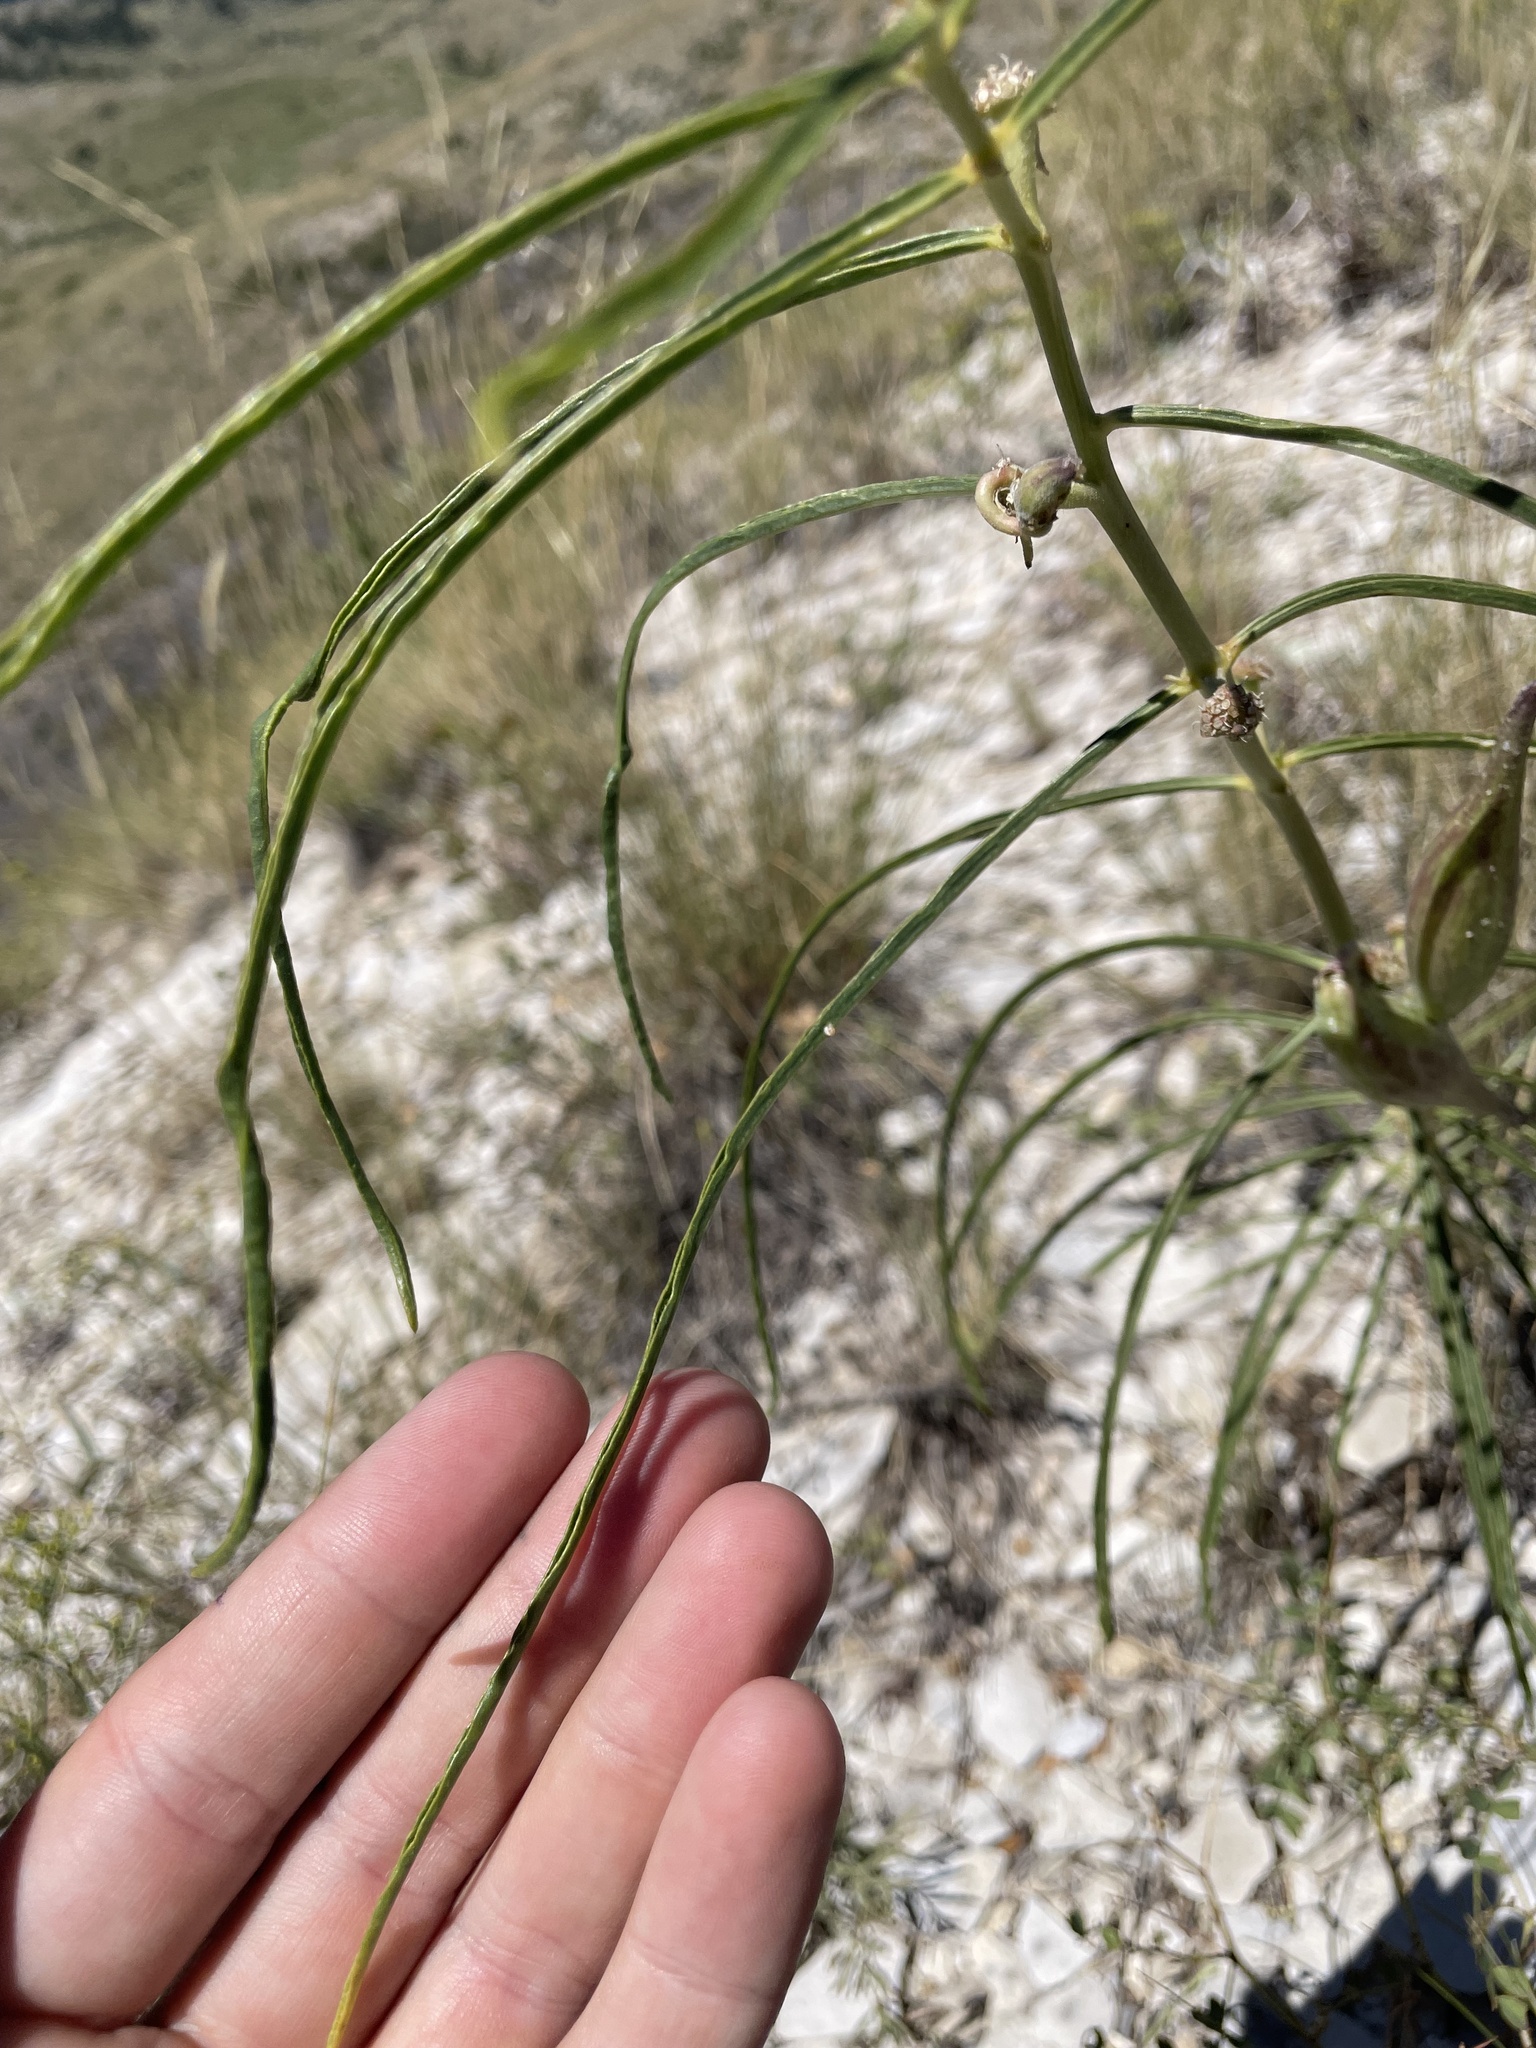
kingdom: Plantae
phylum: Tracheophyta
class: Magnoliopsida
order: Gentianales
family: Apocynaceae
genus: Asclepias
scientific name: Asclepias engelmanniana
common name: Engelmann's milkweed
